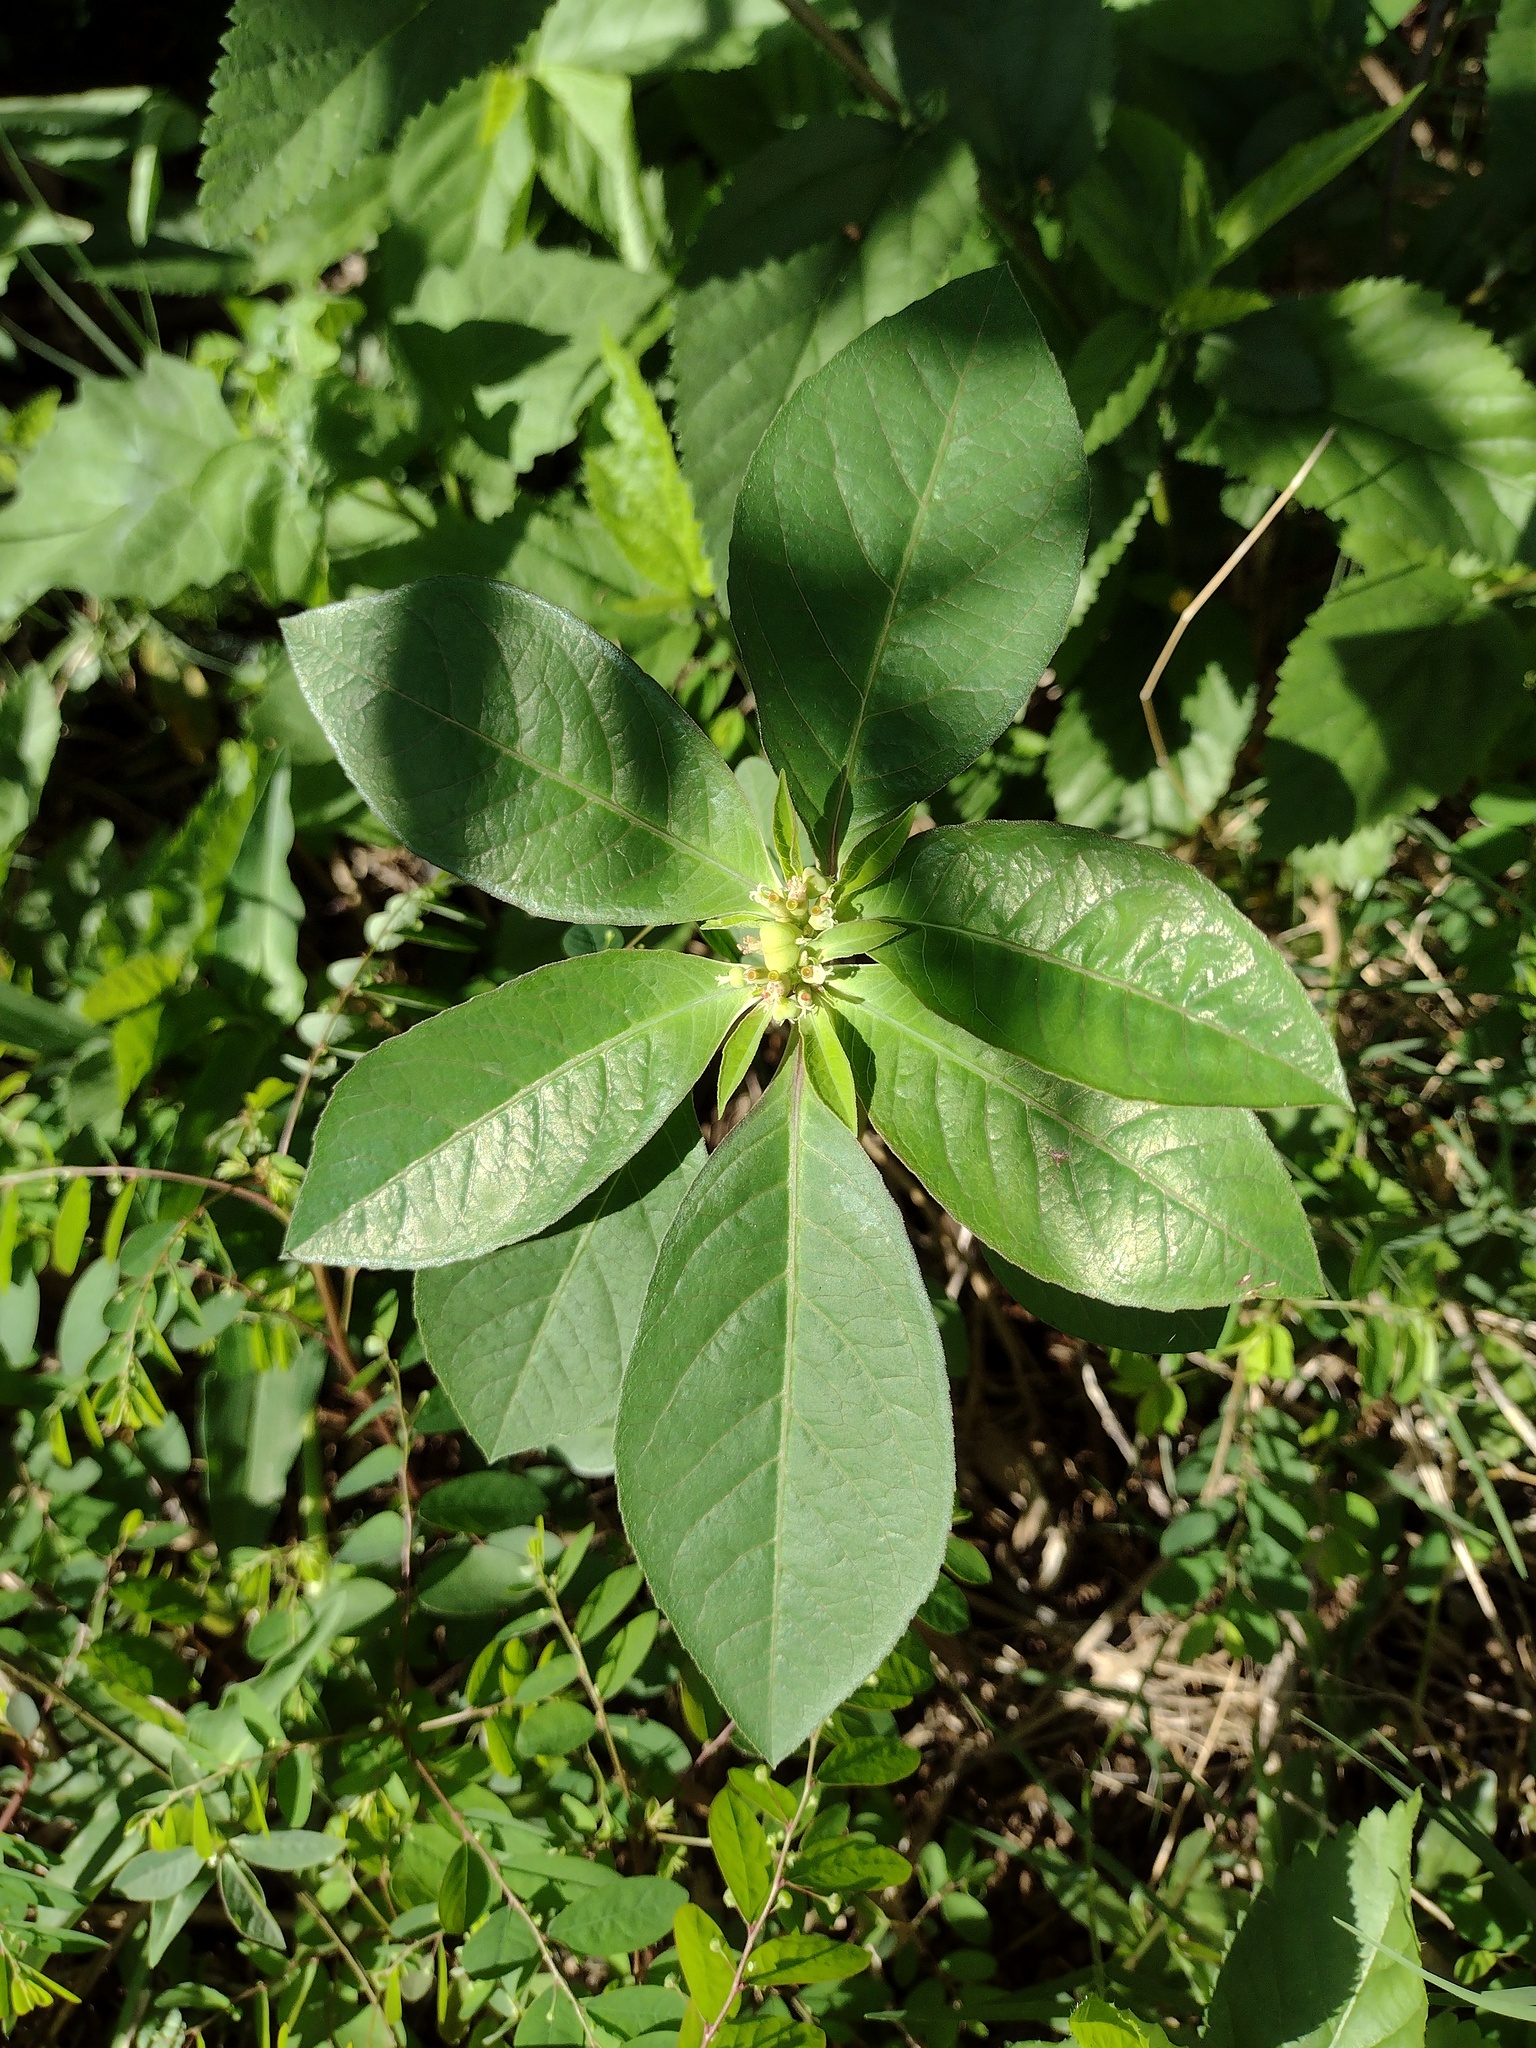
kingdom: Plantae
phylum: Tracheophyta
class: Magnoliopsida
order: Malpighiales
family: Euphorbiaceae
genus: Euphorbia
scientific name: Euphorbia heterophylla
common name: Mexican fireplant
